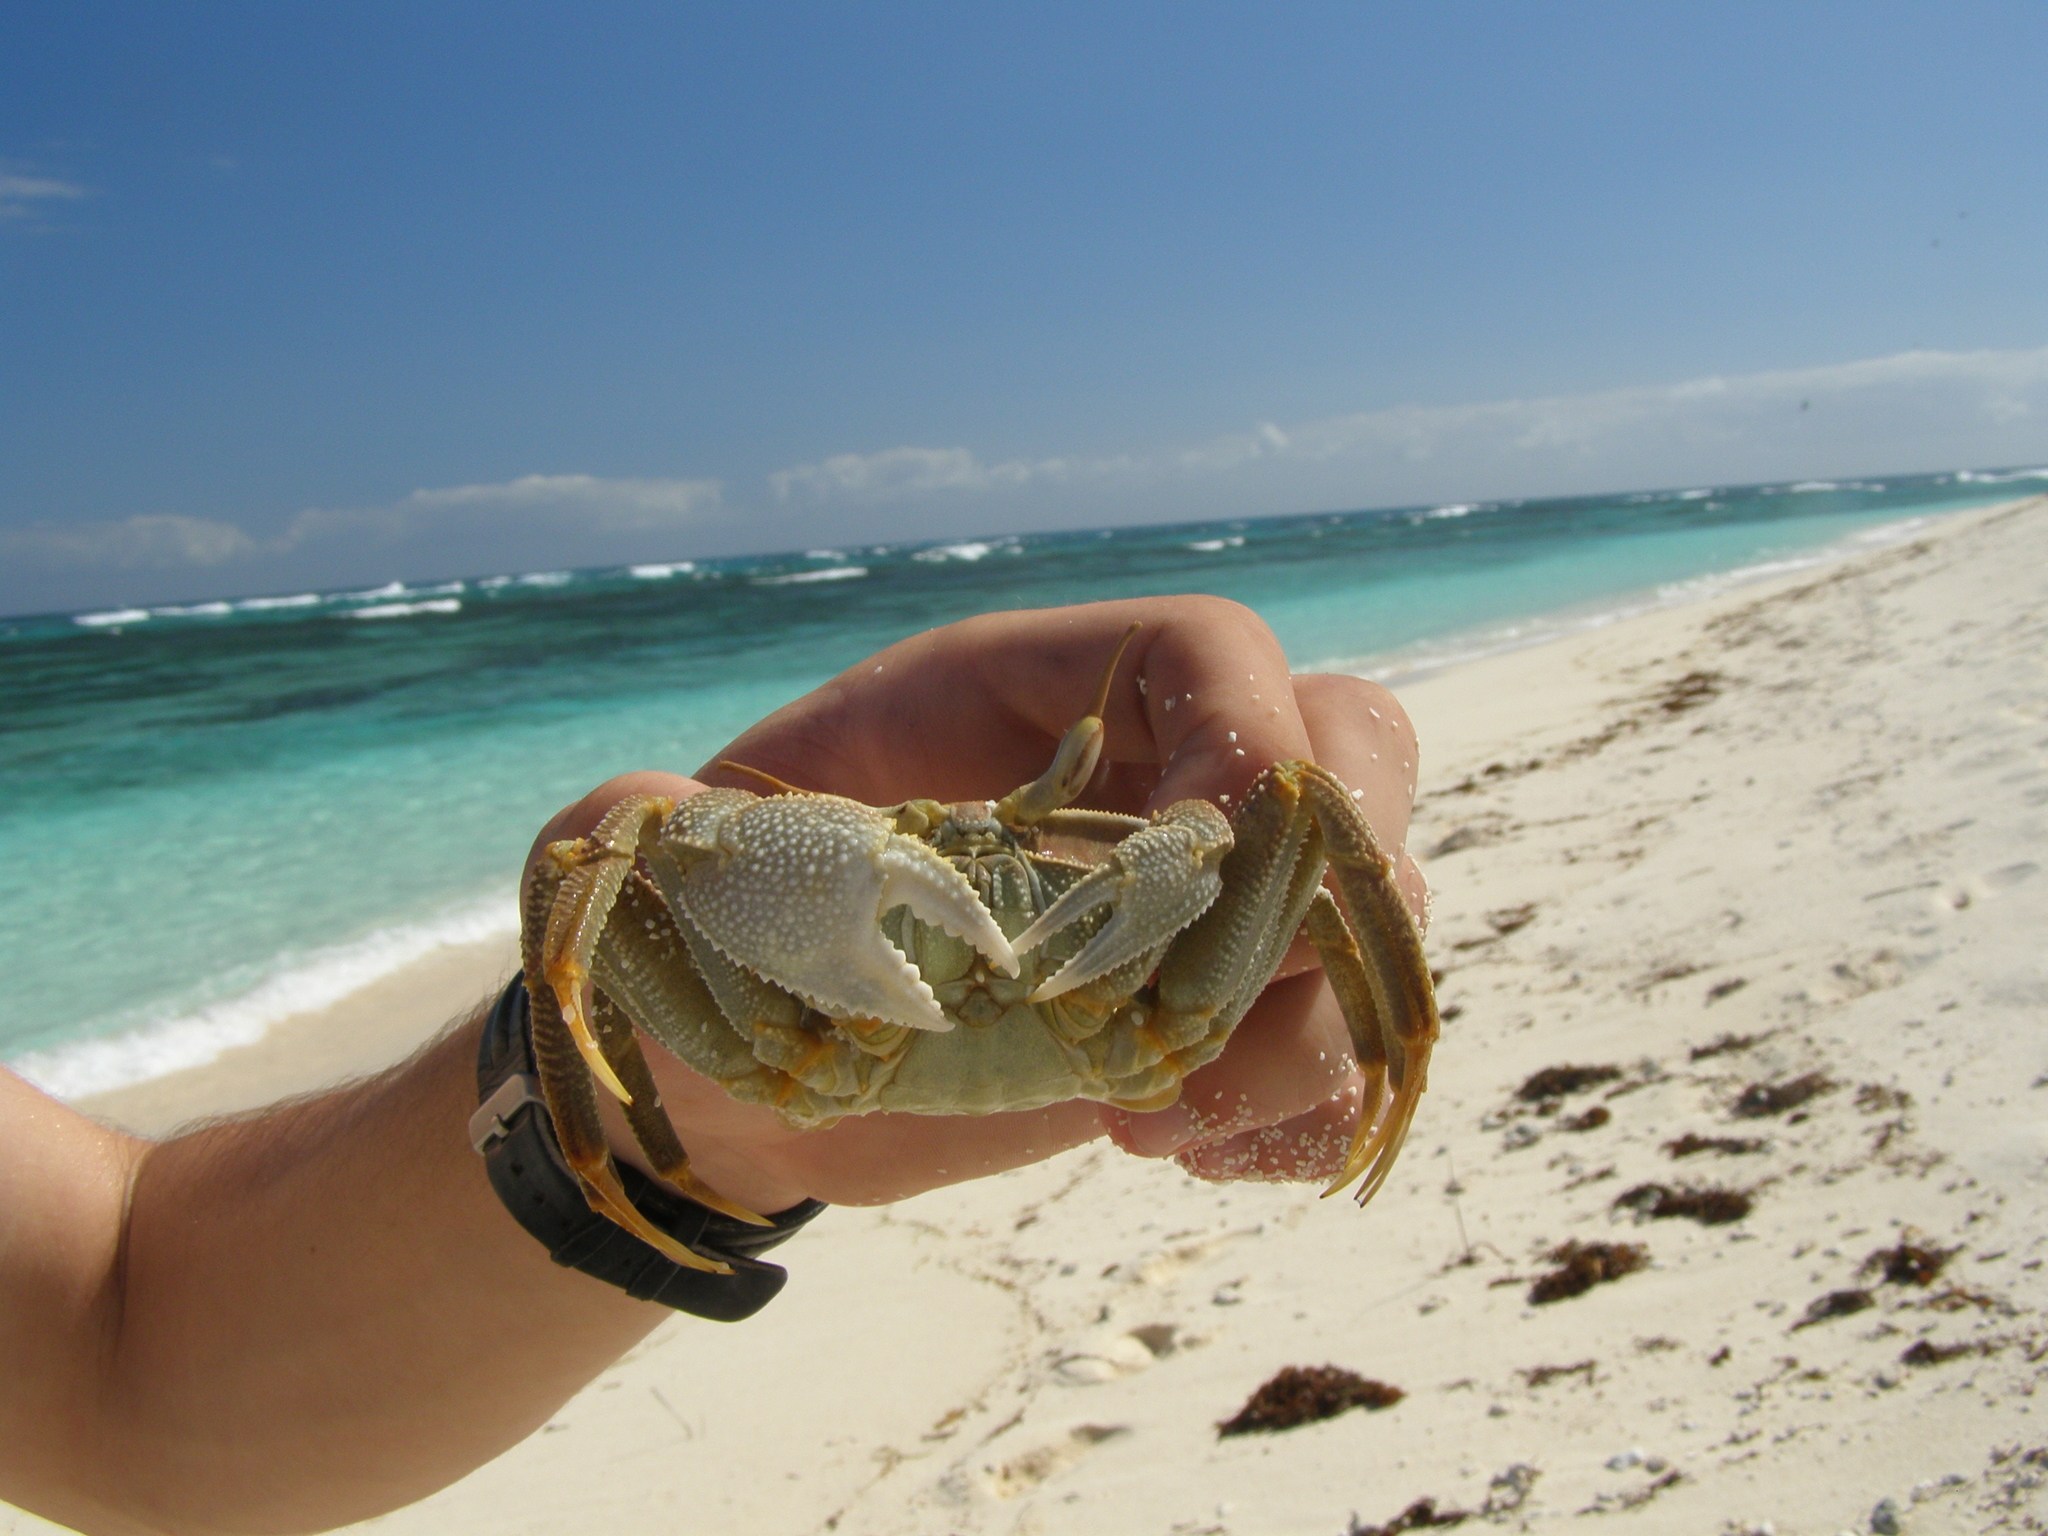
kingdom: Animalia
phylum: Arthropoda
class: Malacostraca
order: Decapoda
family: Ocypodidae
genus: Ocypode
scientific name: Ocypode ceratophthalmus
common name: Indo-pacific ghost crab
